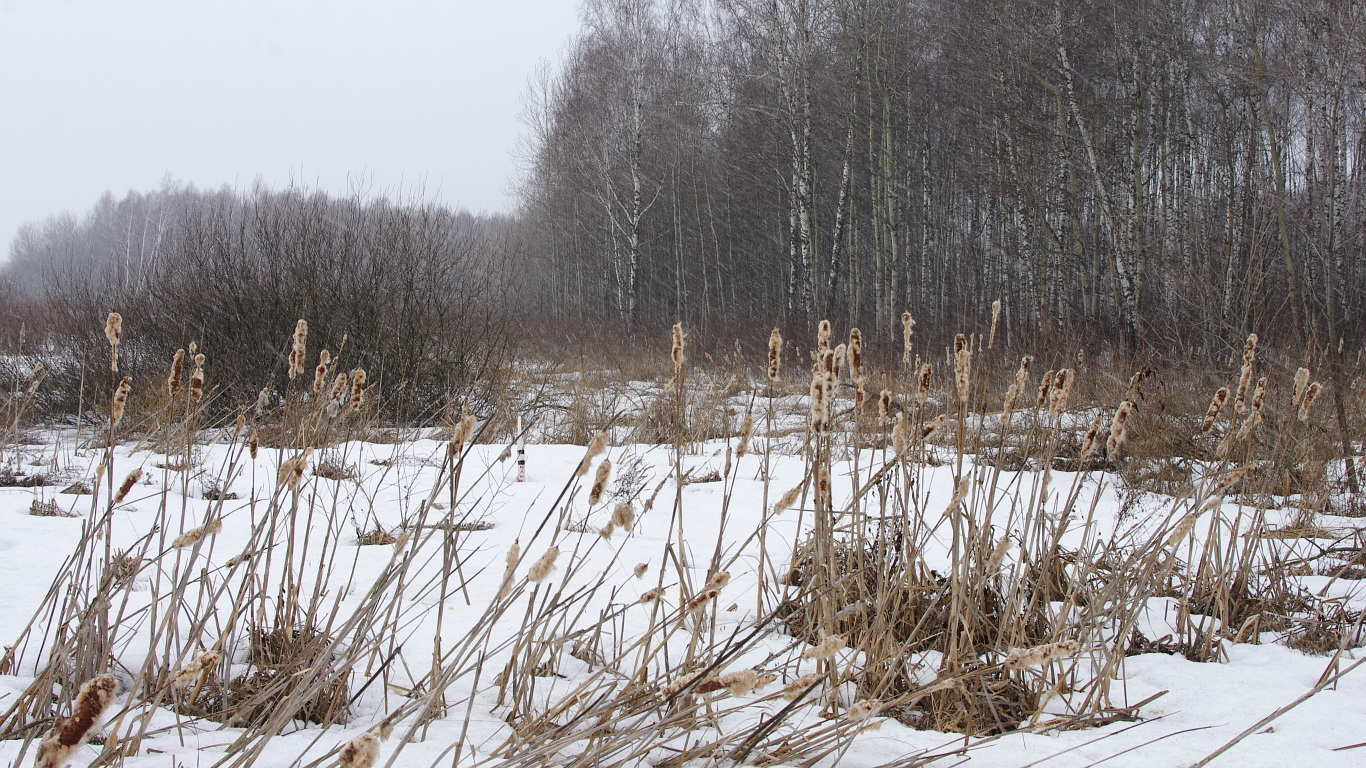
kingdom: Plantae
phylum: Tracheophyta
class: Liliopsida
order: Poales
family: Typhaceae
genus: Typha
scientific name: Typha latifolia
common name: Broadleaf cattail
